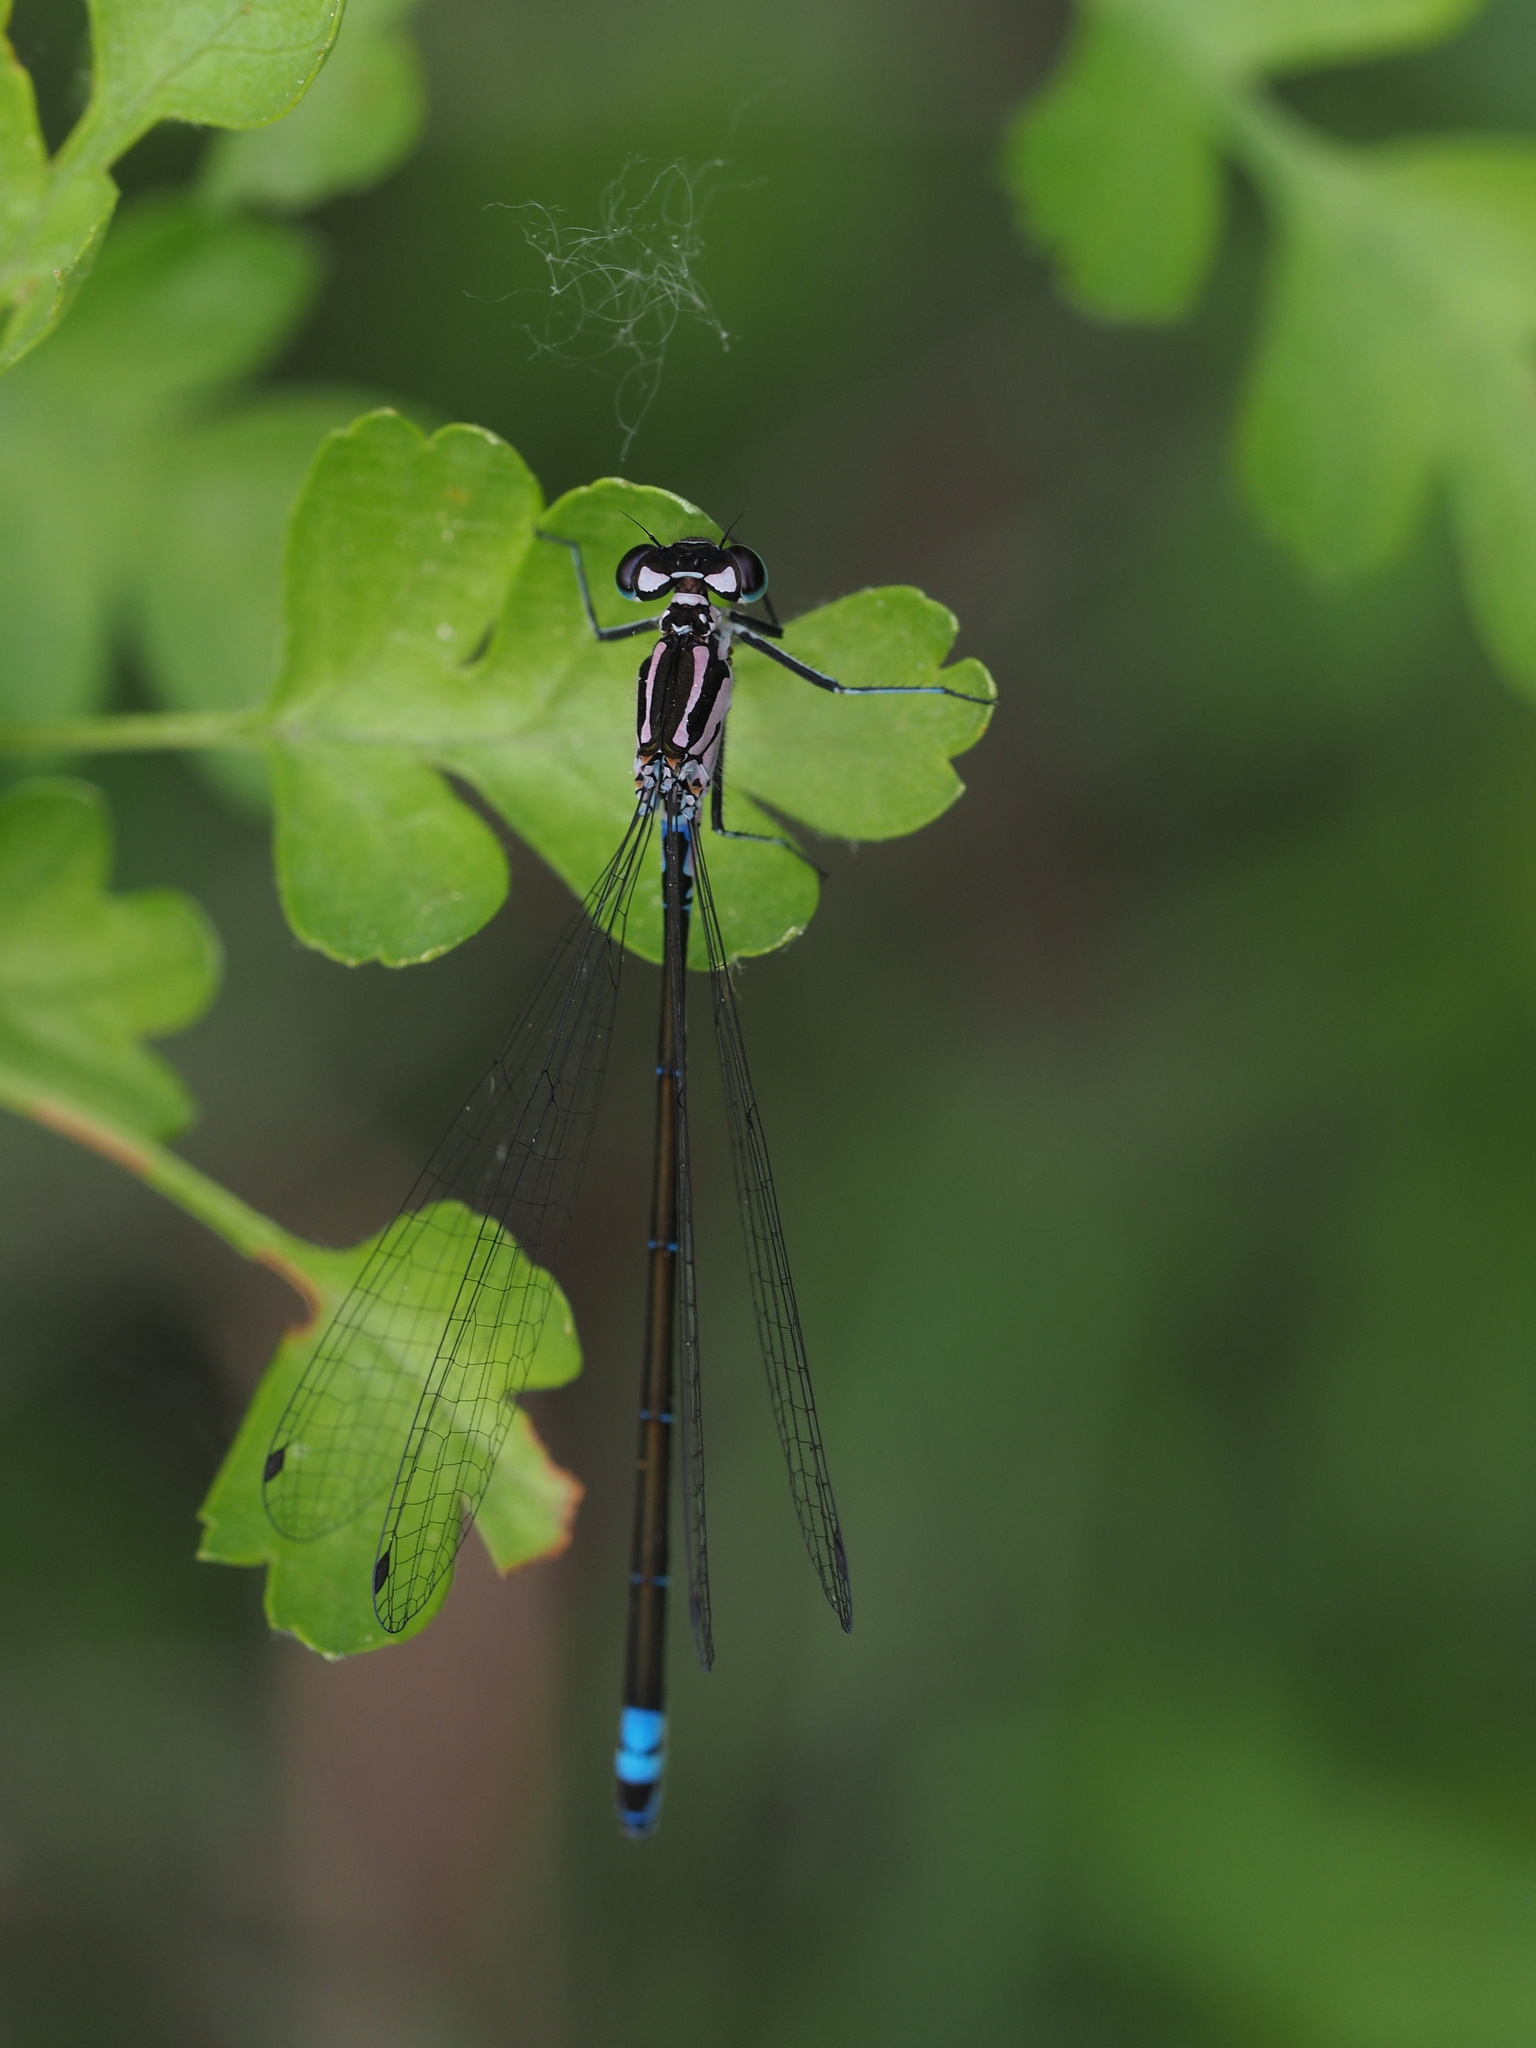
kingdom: Animalia
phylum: Arthropoda
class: Insecta
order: Odonata
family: Coenagrionidae
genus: Coenagrion
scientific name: Coenagrion pulchellum
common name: Variable bluet
